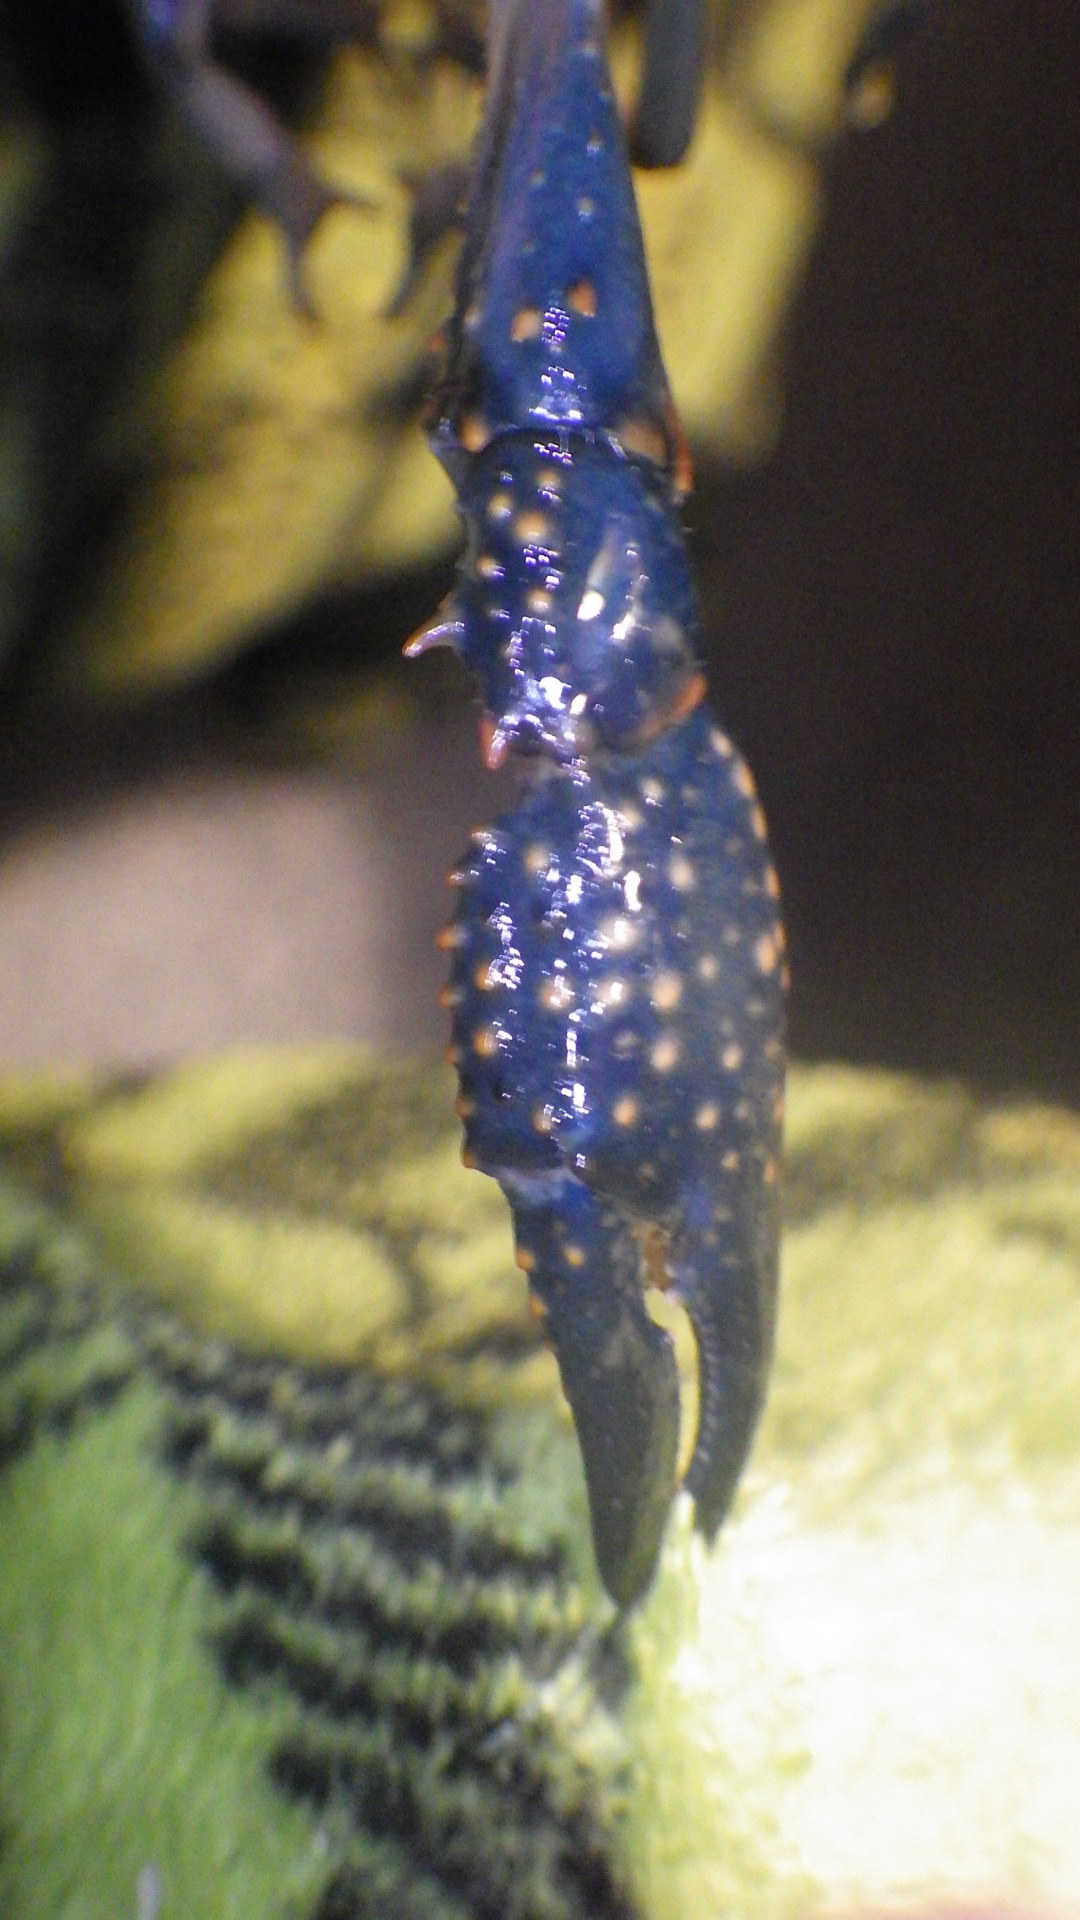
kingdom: Animalia
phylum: Arthropoda
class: Malacostraca
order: Decapoda
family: Cambaridae
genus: Procambarus
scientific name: Procambarus clarkii
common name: Red swamp crayfish
